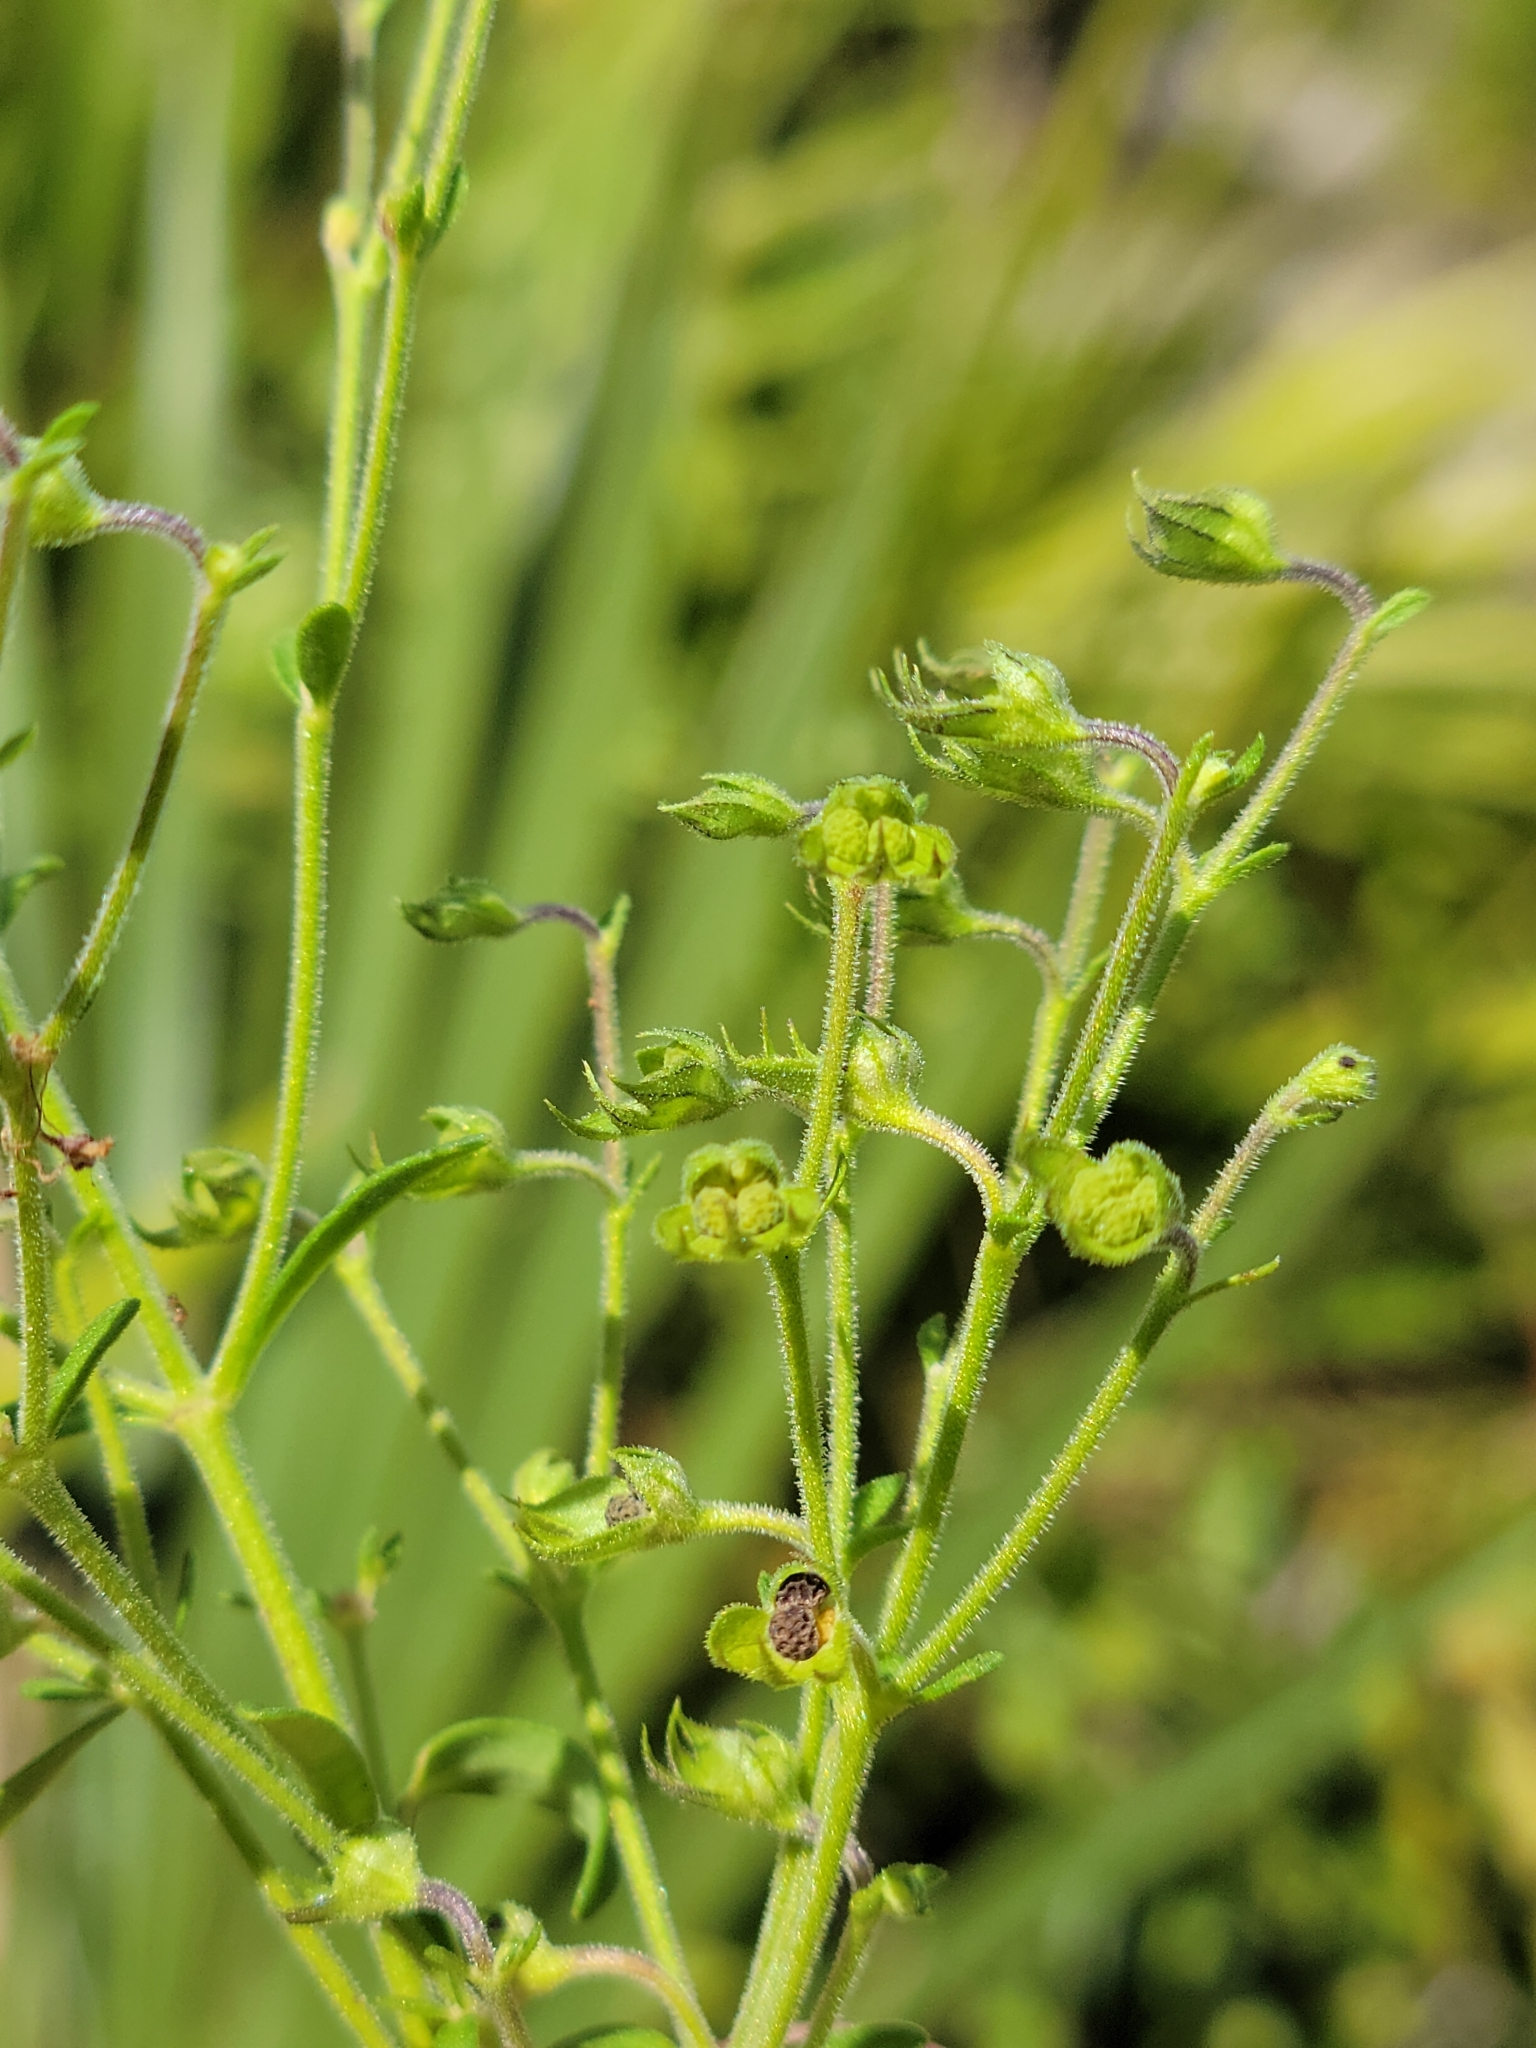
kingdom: Plantae
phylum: Tracheophyta
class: Magnoliopsida
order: Lamiales
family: Lamiaceae
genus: Trichostema
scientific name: Trichostema gracile
